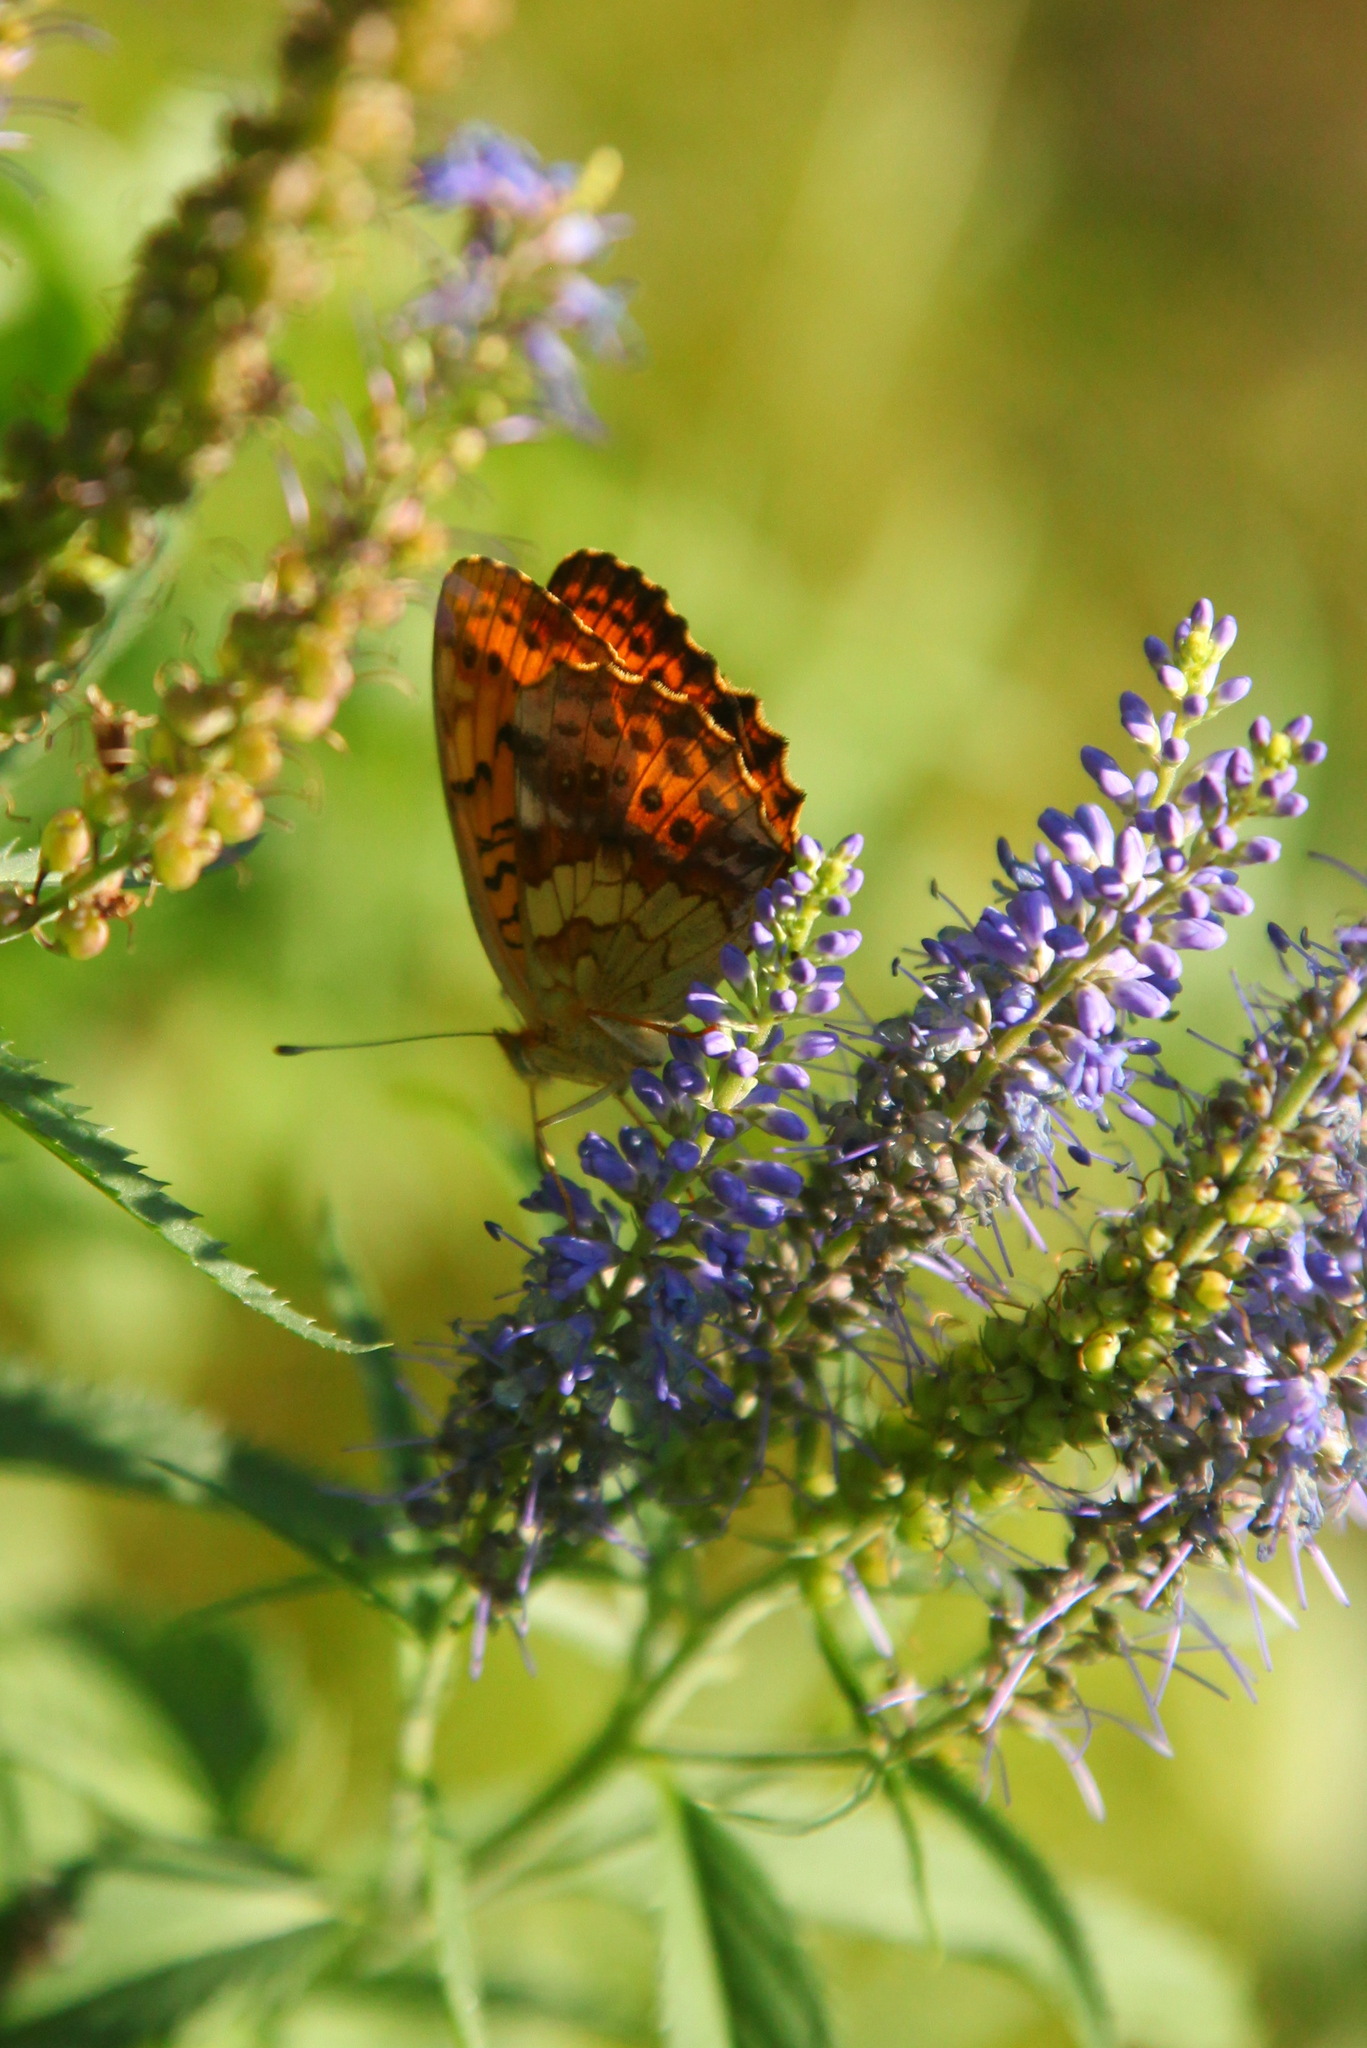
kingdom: Animalia
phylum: Arthropoda
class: Insecta
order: Lepidoptera
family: Nymphalidae
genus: Brenthis
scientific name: Brenthis daphne
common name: Marbled fritillary
